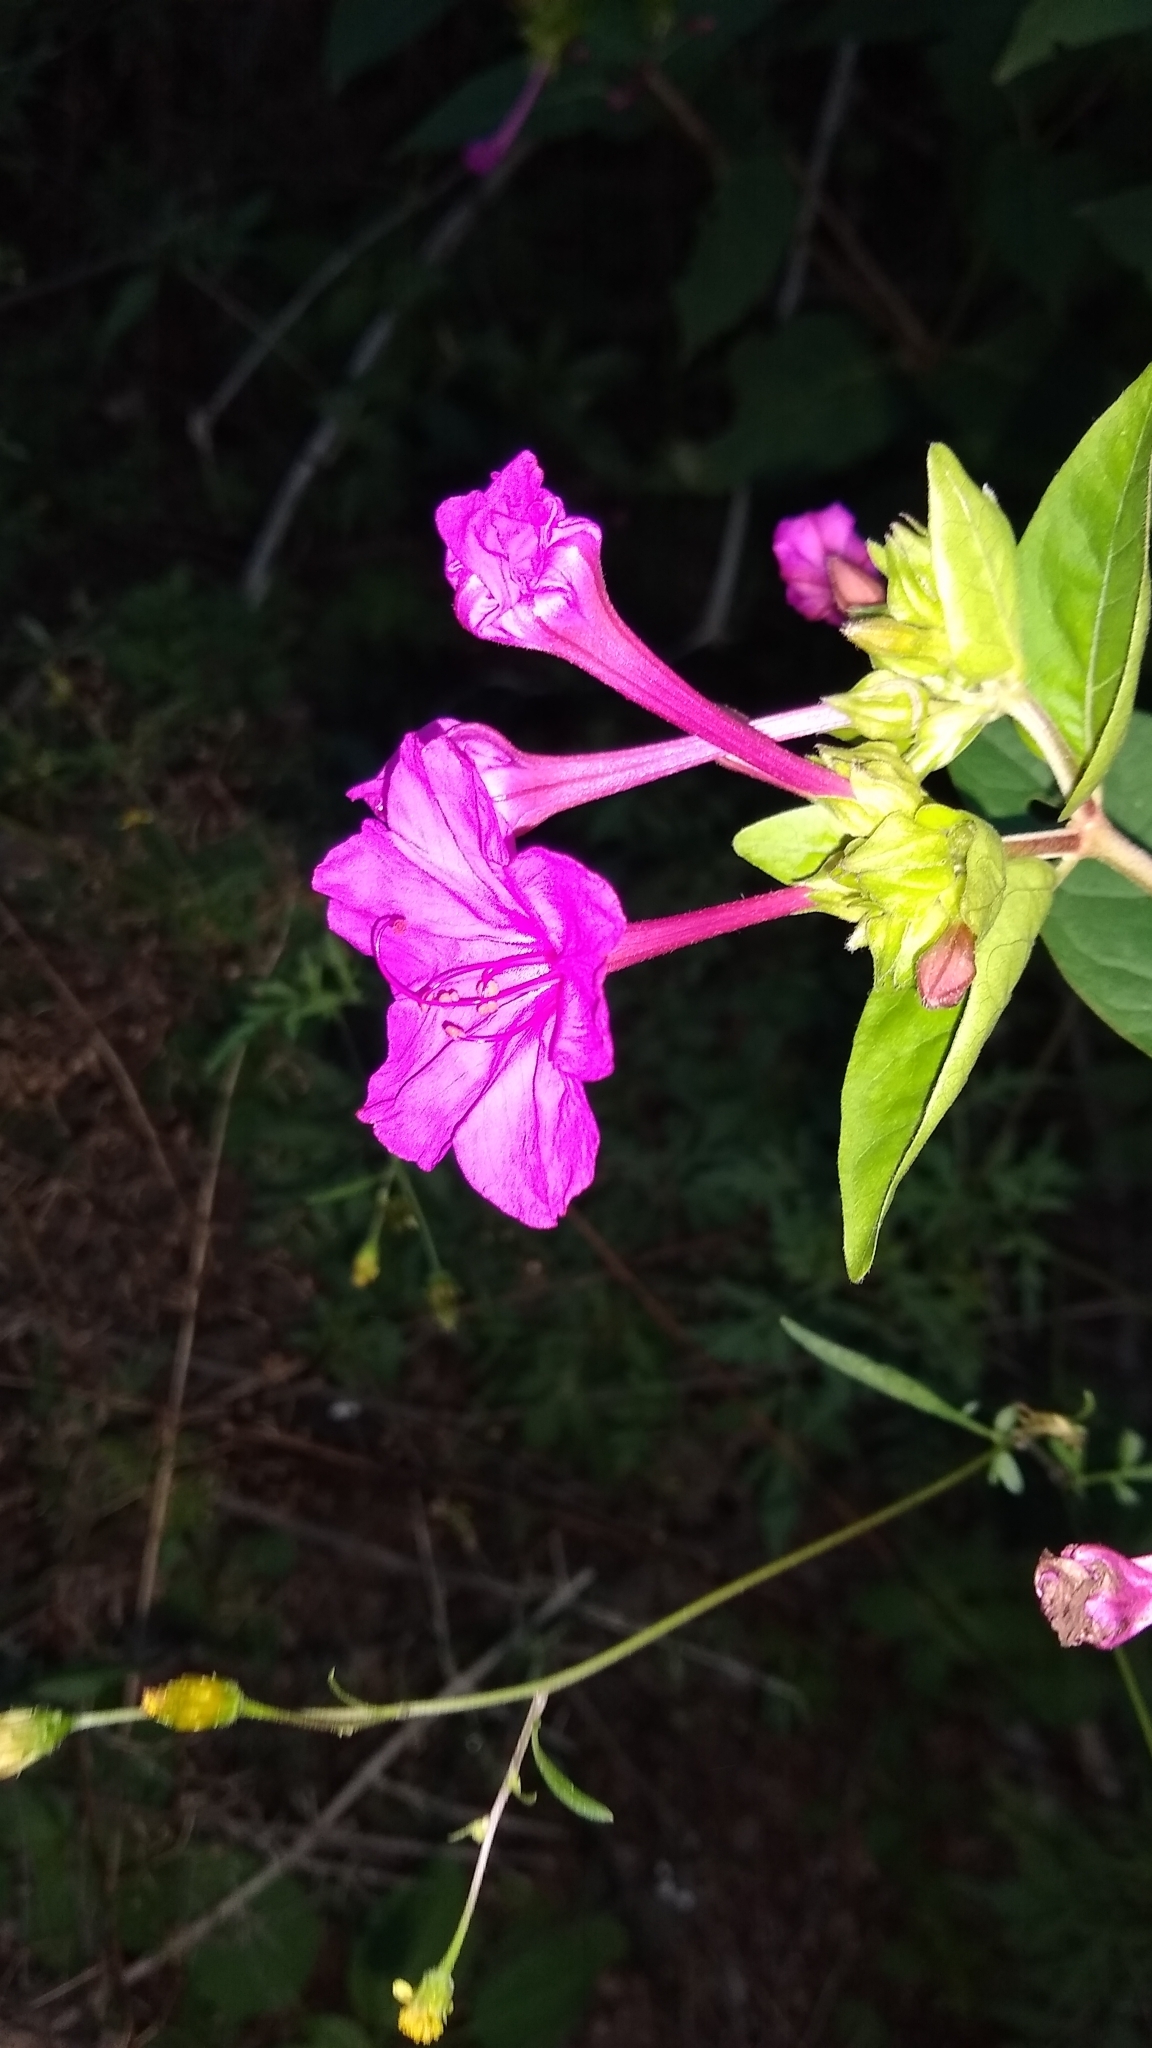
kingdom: Plantae
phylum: Tracheophyta
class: Magnoliopsida
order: Caryophyllales
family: Nyctaginaceae
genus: Mirabilis
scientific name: Mirabilis jalapa
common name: Marvel-of-peru
